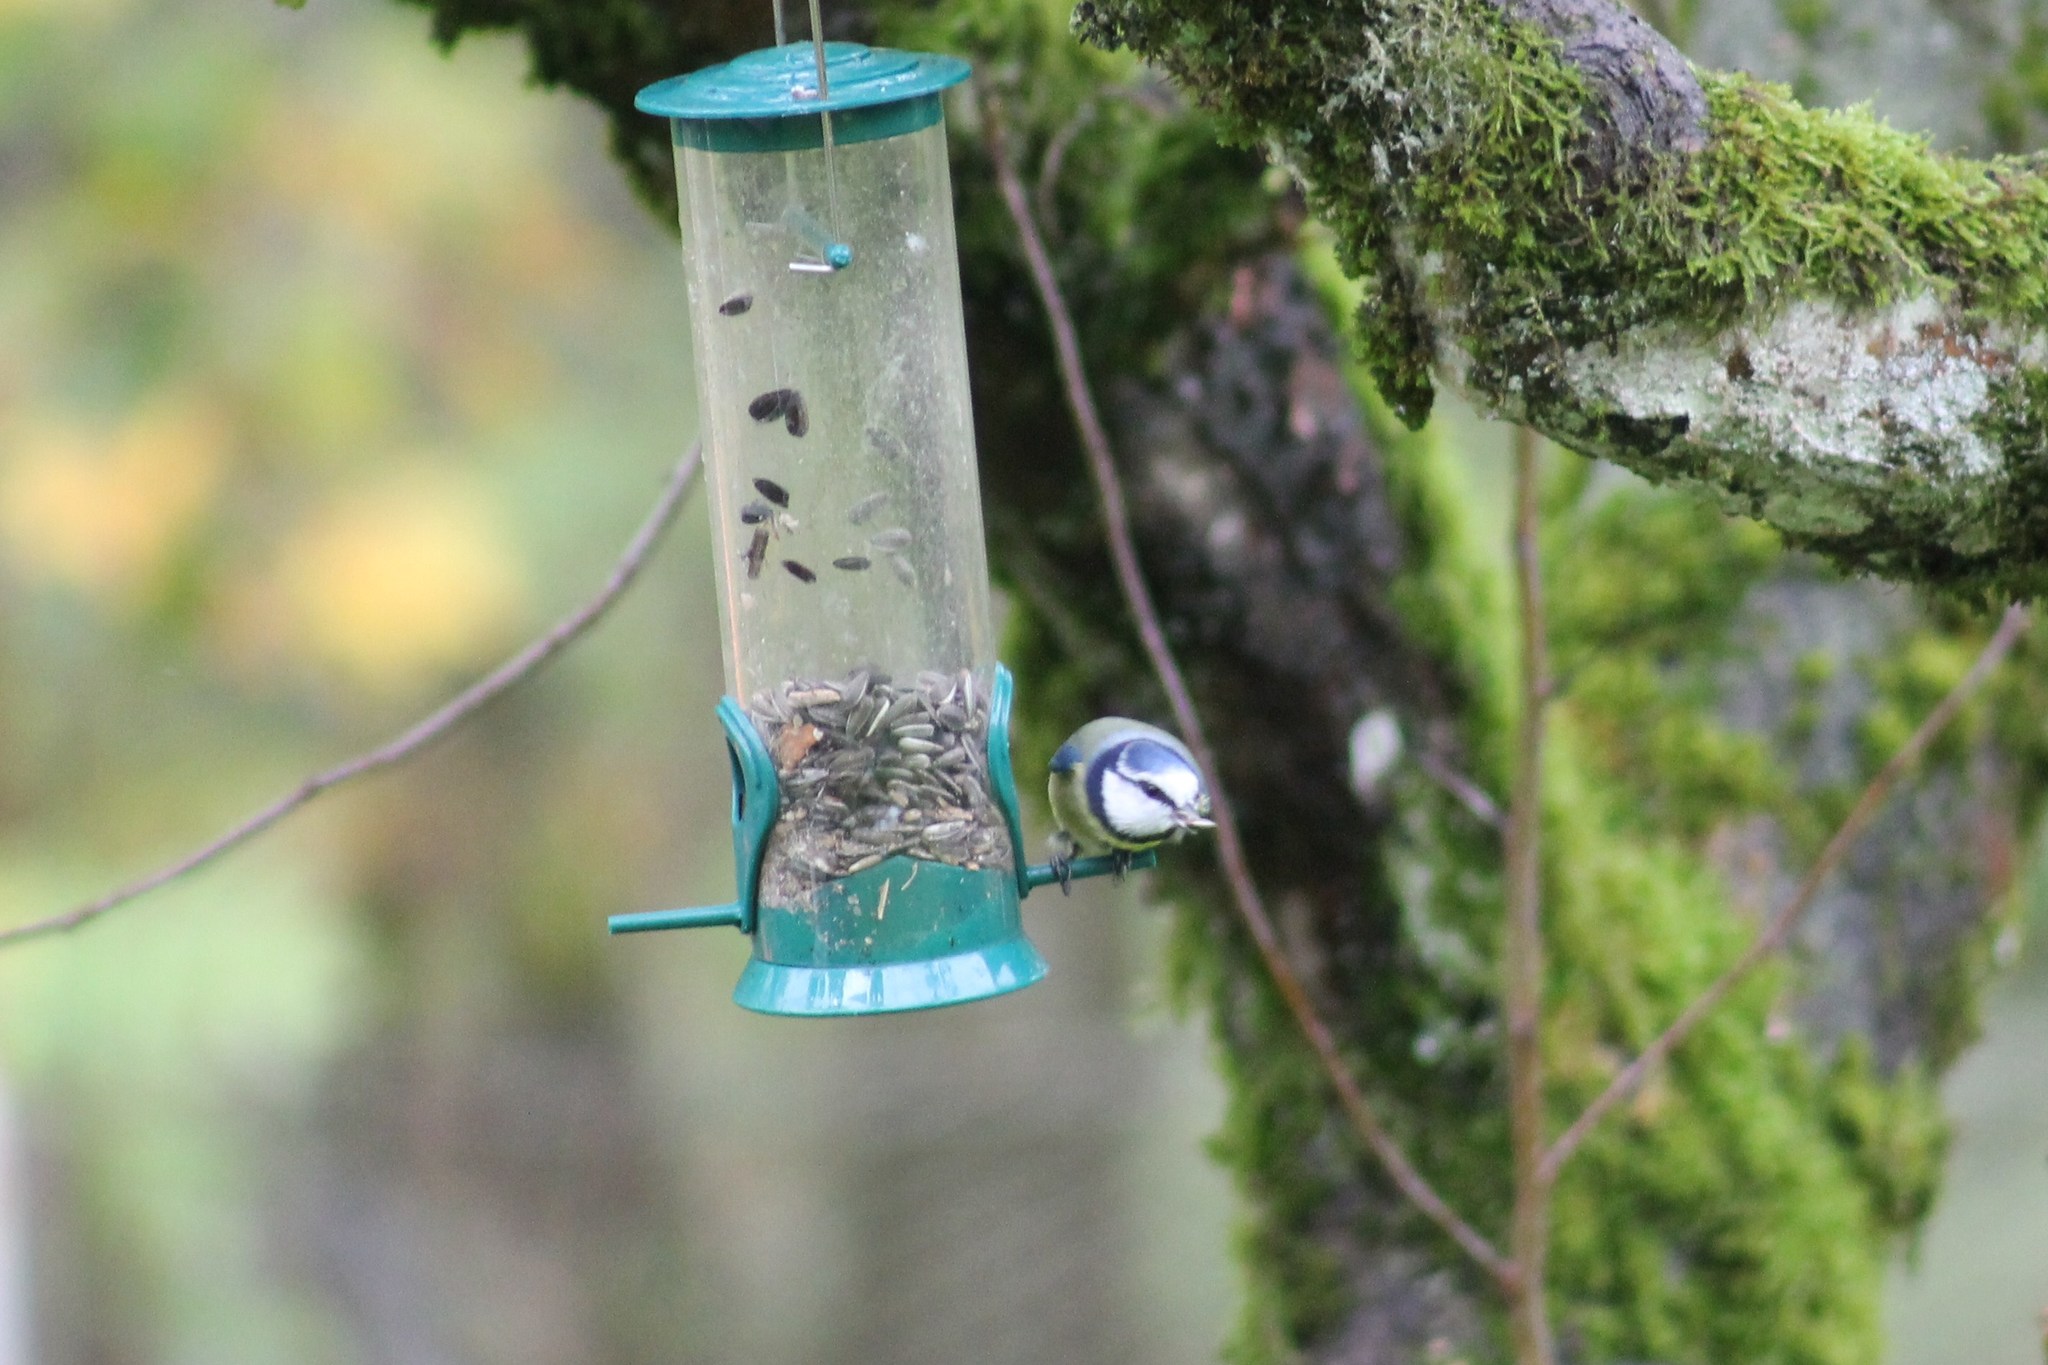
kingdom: Animalia
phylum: Chordata
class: Aves
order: Passeriformes
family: Paridae
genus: Cyanistes
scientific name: Cyanistes caeruleus
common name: Eurasian blue tit
